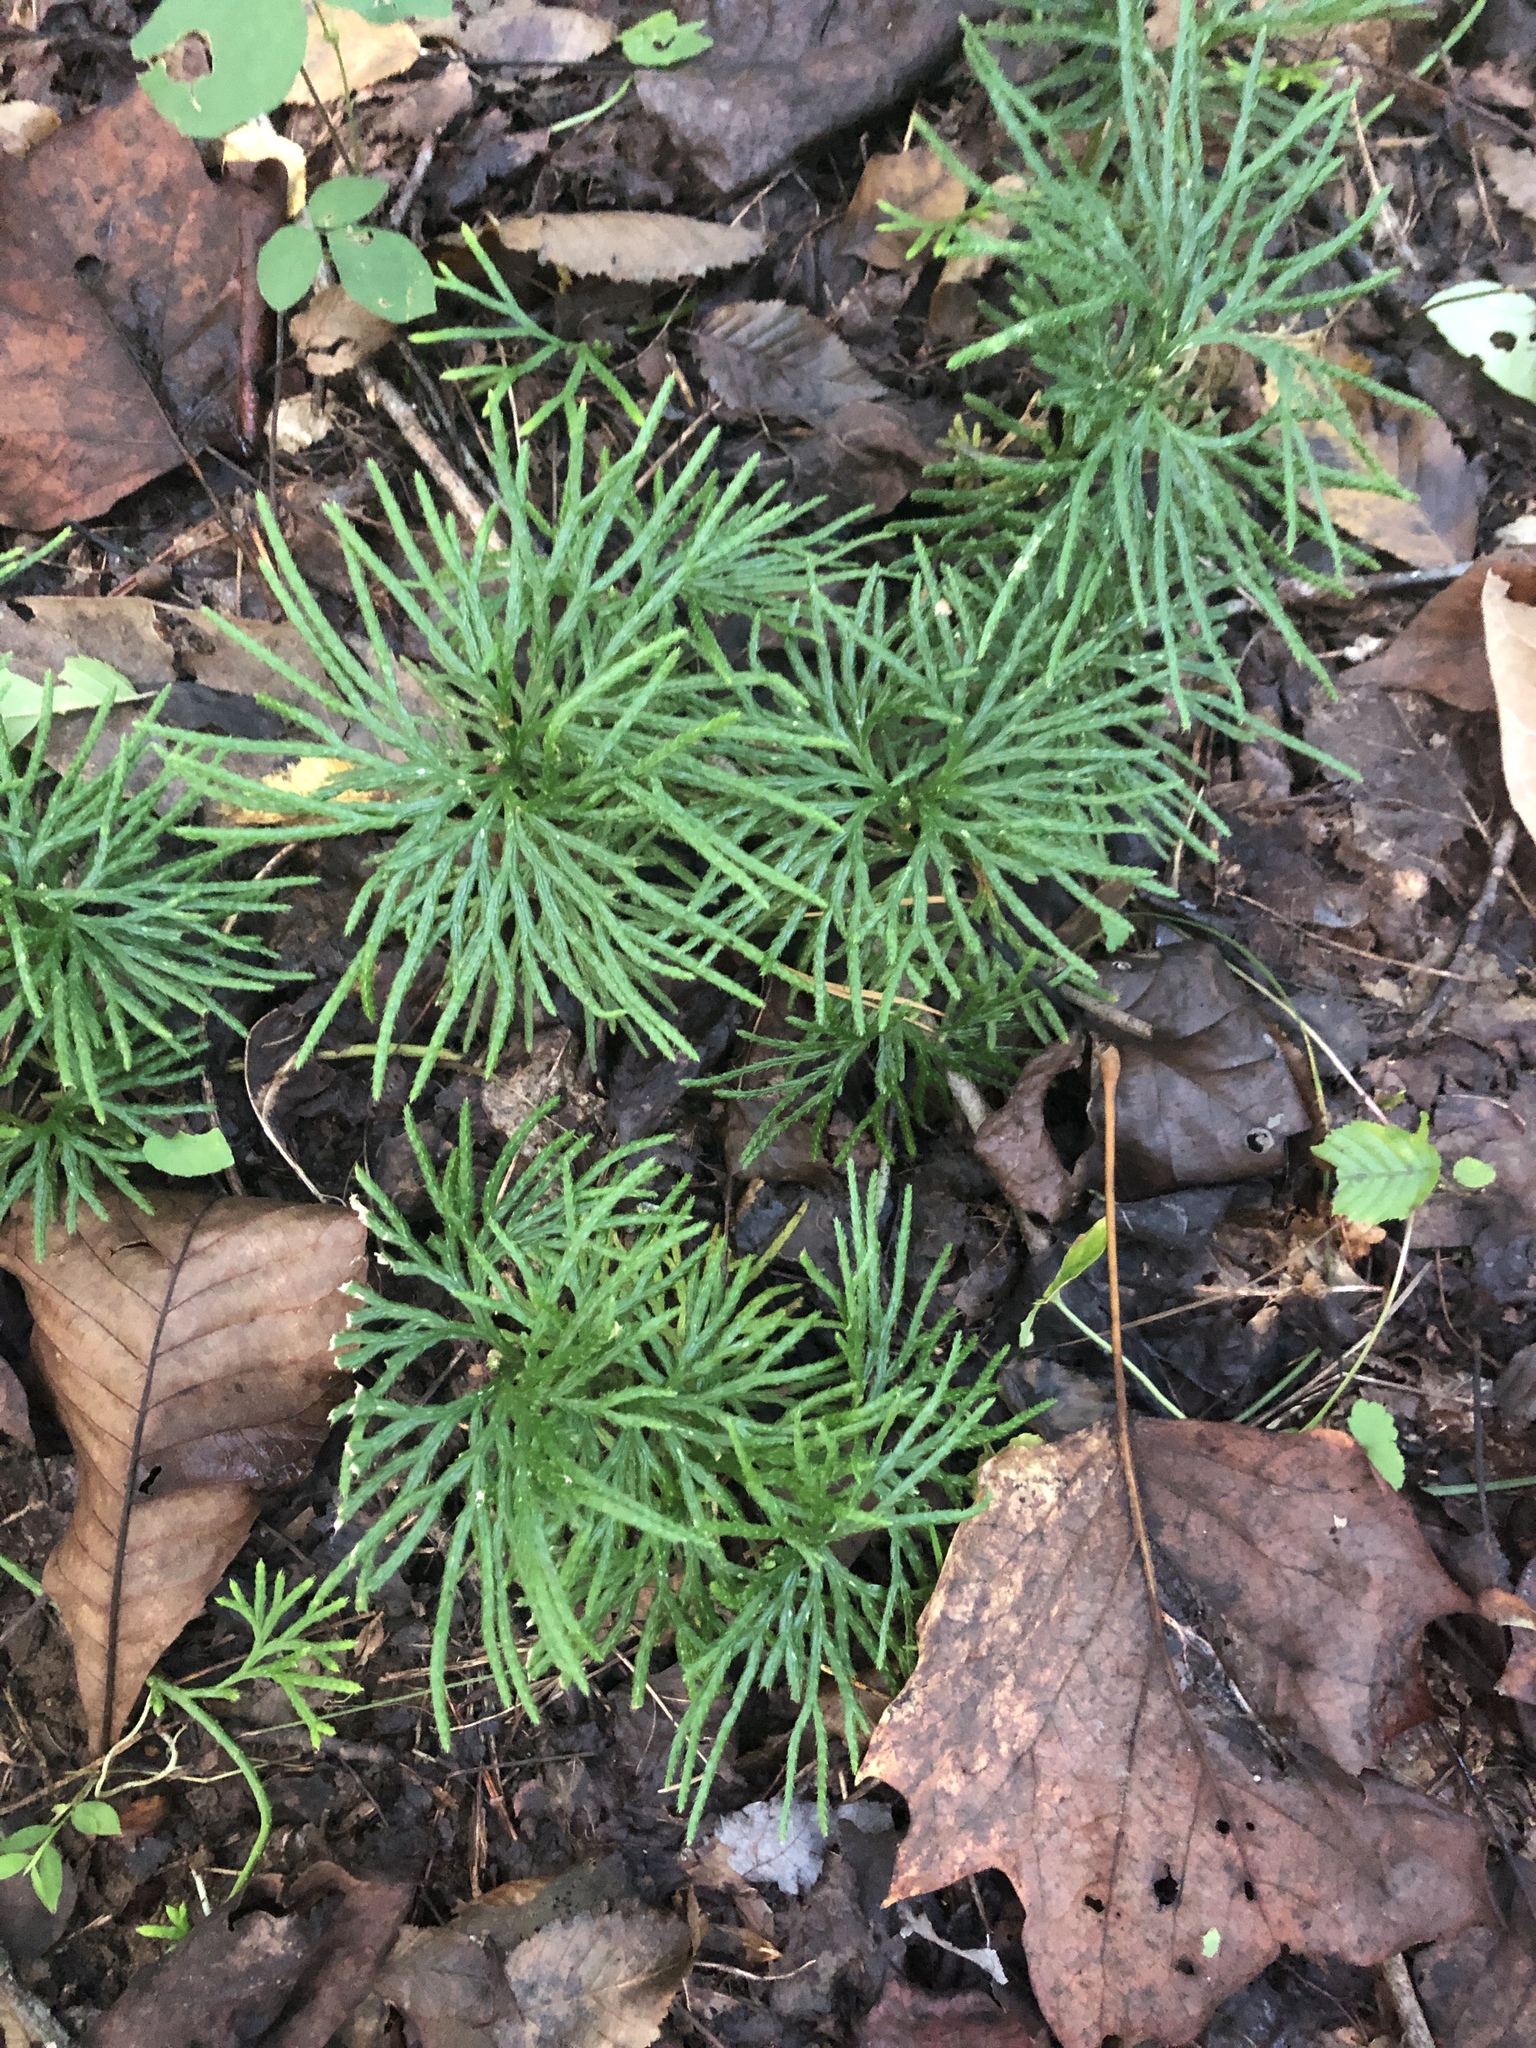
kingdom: Plantae
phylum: Tracheophyta
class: Lycopodiopsida
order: Lycopodiales
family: Lycopodiaceae
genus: Diphasiastrum
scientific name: Diphasiastrum digitatum
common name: Southern running-pine
